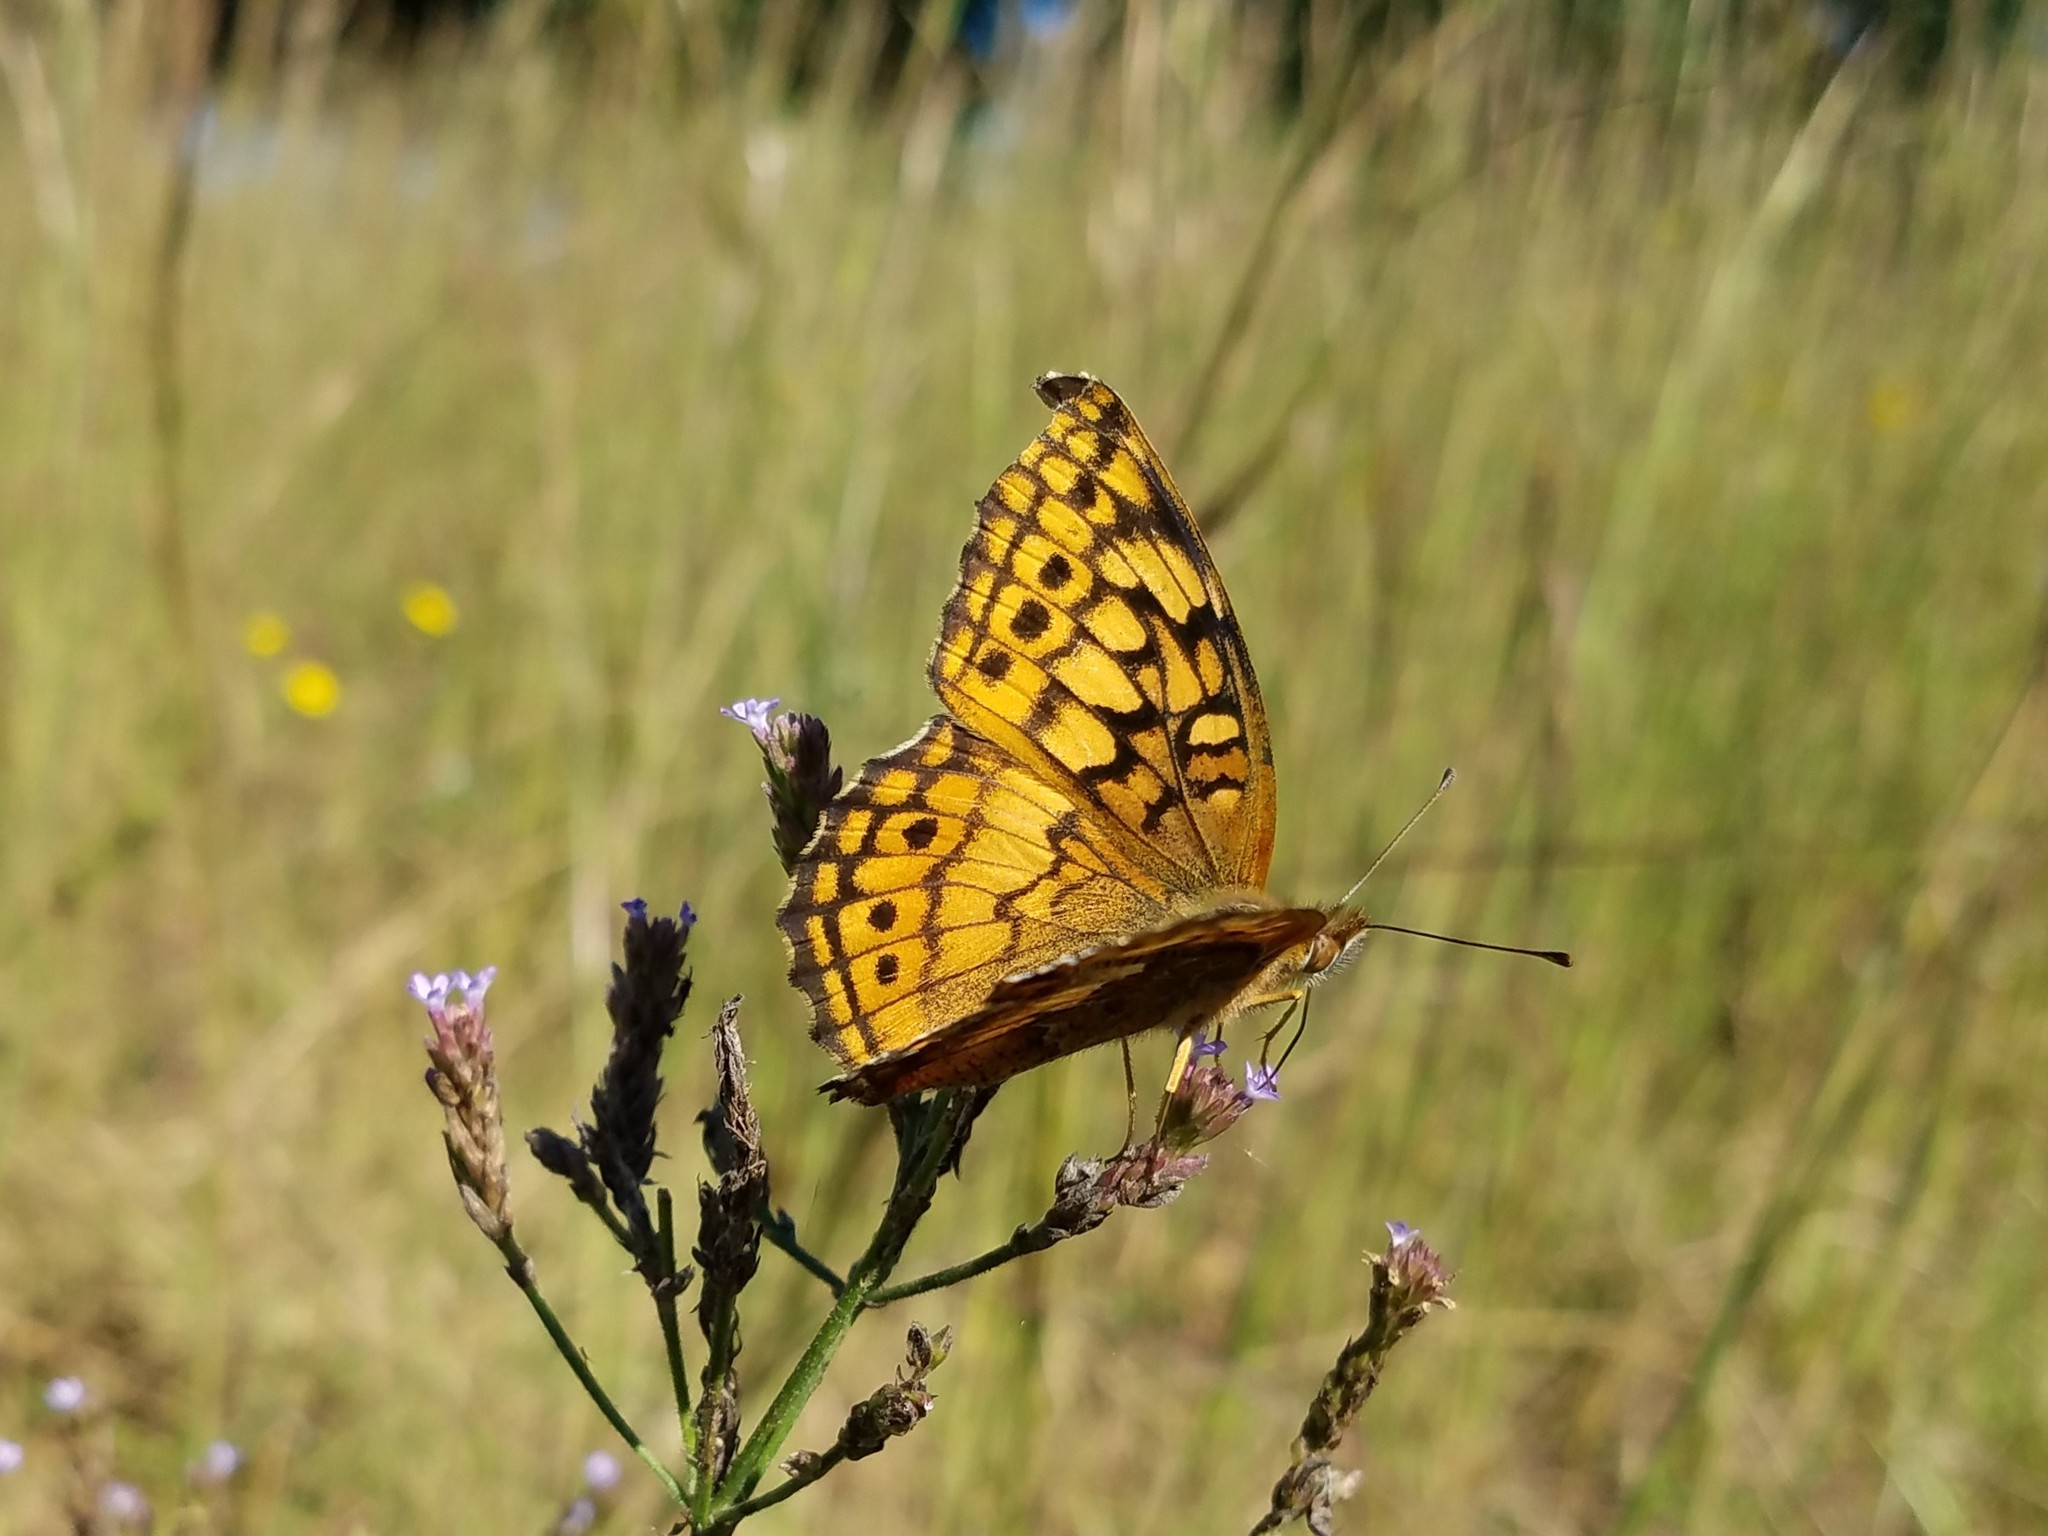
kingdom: Animalia
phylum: Arthropoda
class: Insecta
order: Lepidoptera
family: Nymphalidae
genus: Euptoieta
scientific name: Euptoieta claudia
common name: Variegated fritillary
